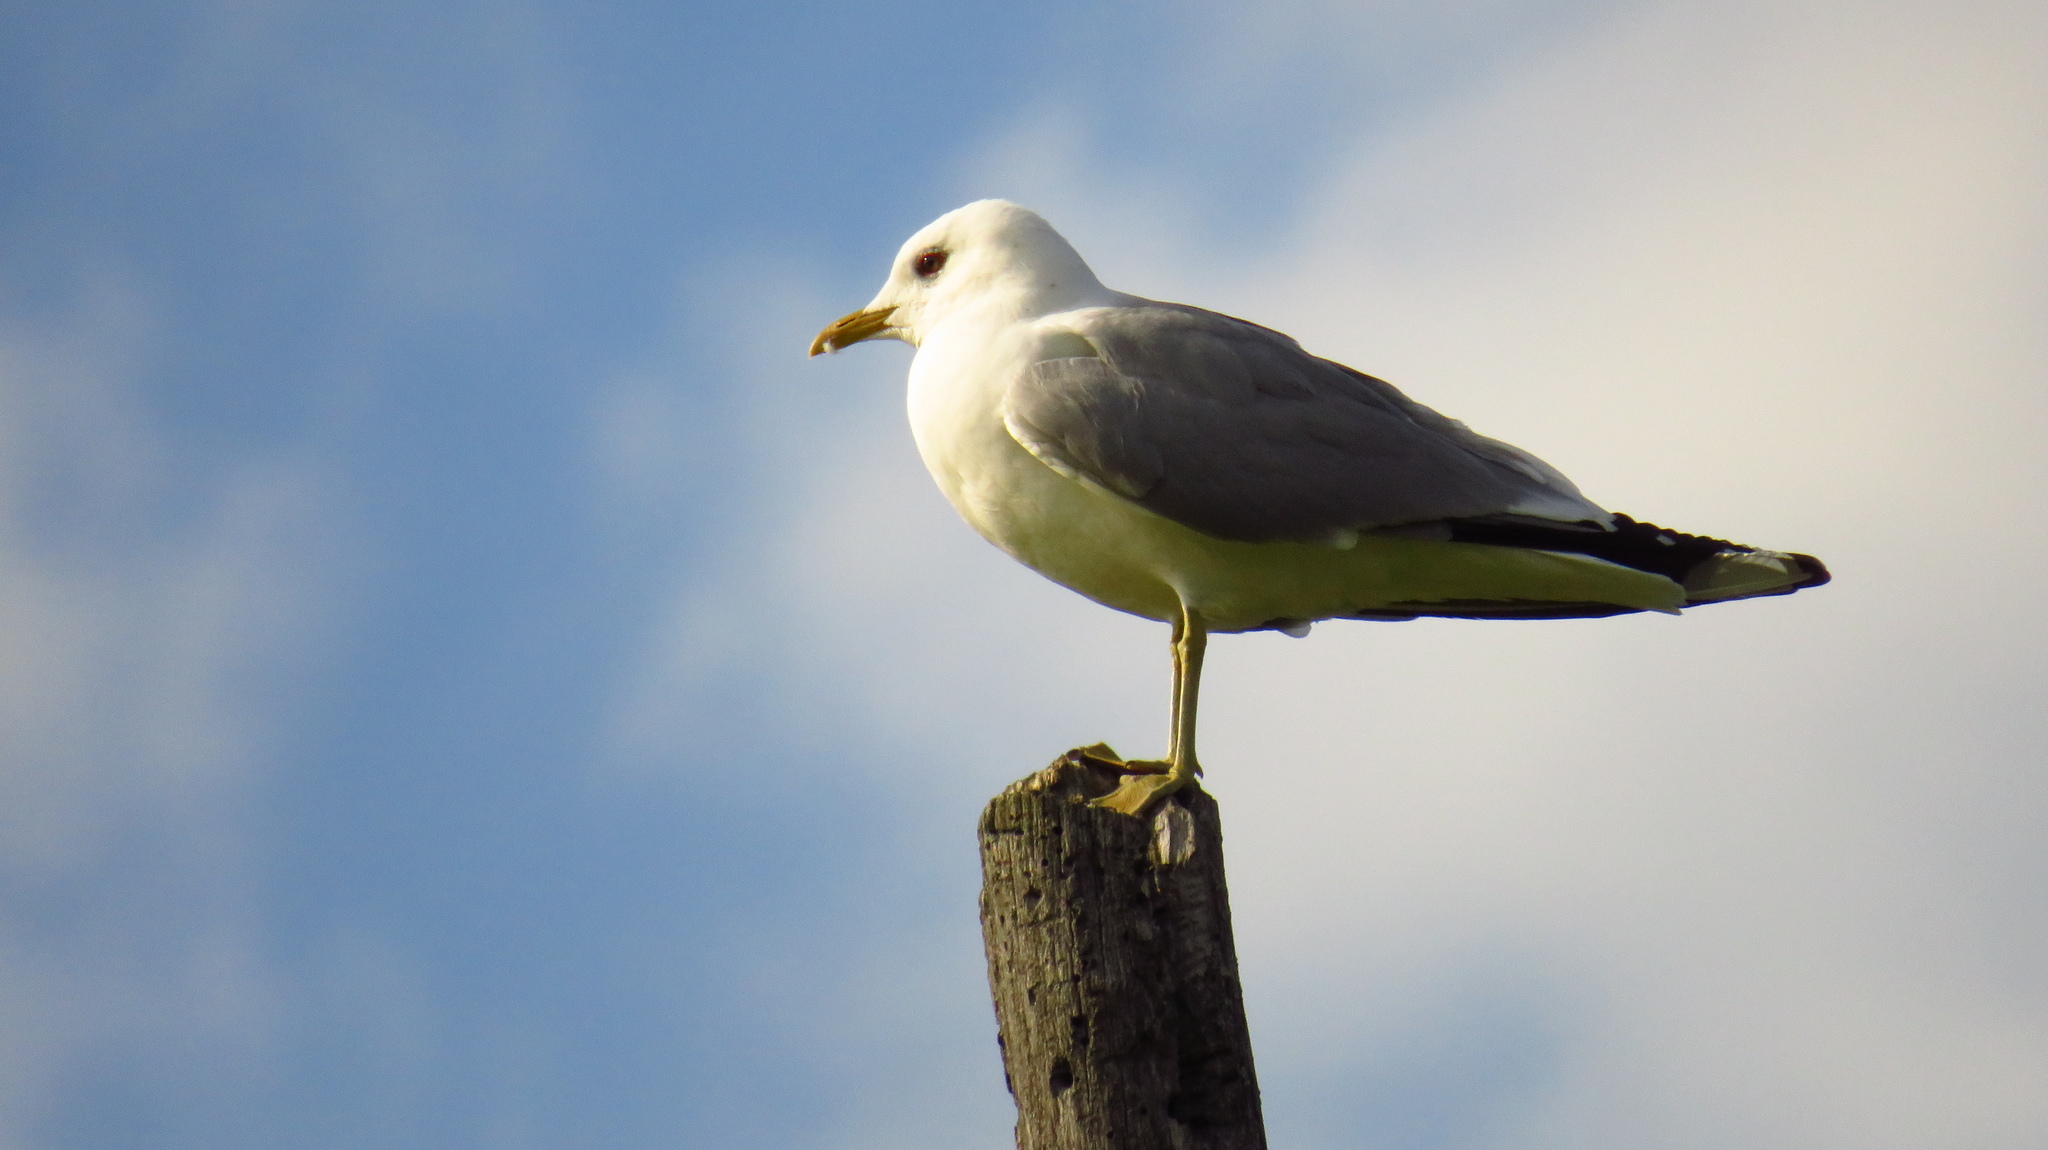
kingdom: Animalia
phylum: Chordata
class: Aves
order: Charadriiformes
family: Laridae
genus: Larus
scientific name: Larus canus
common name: Mew gull
